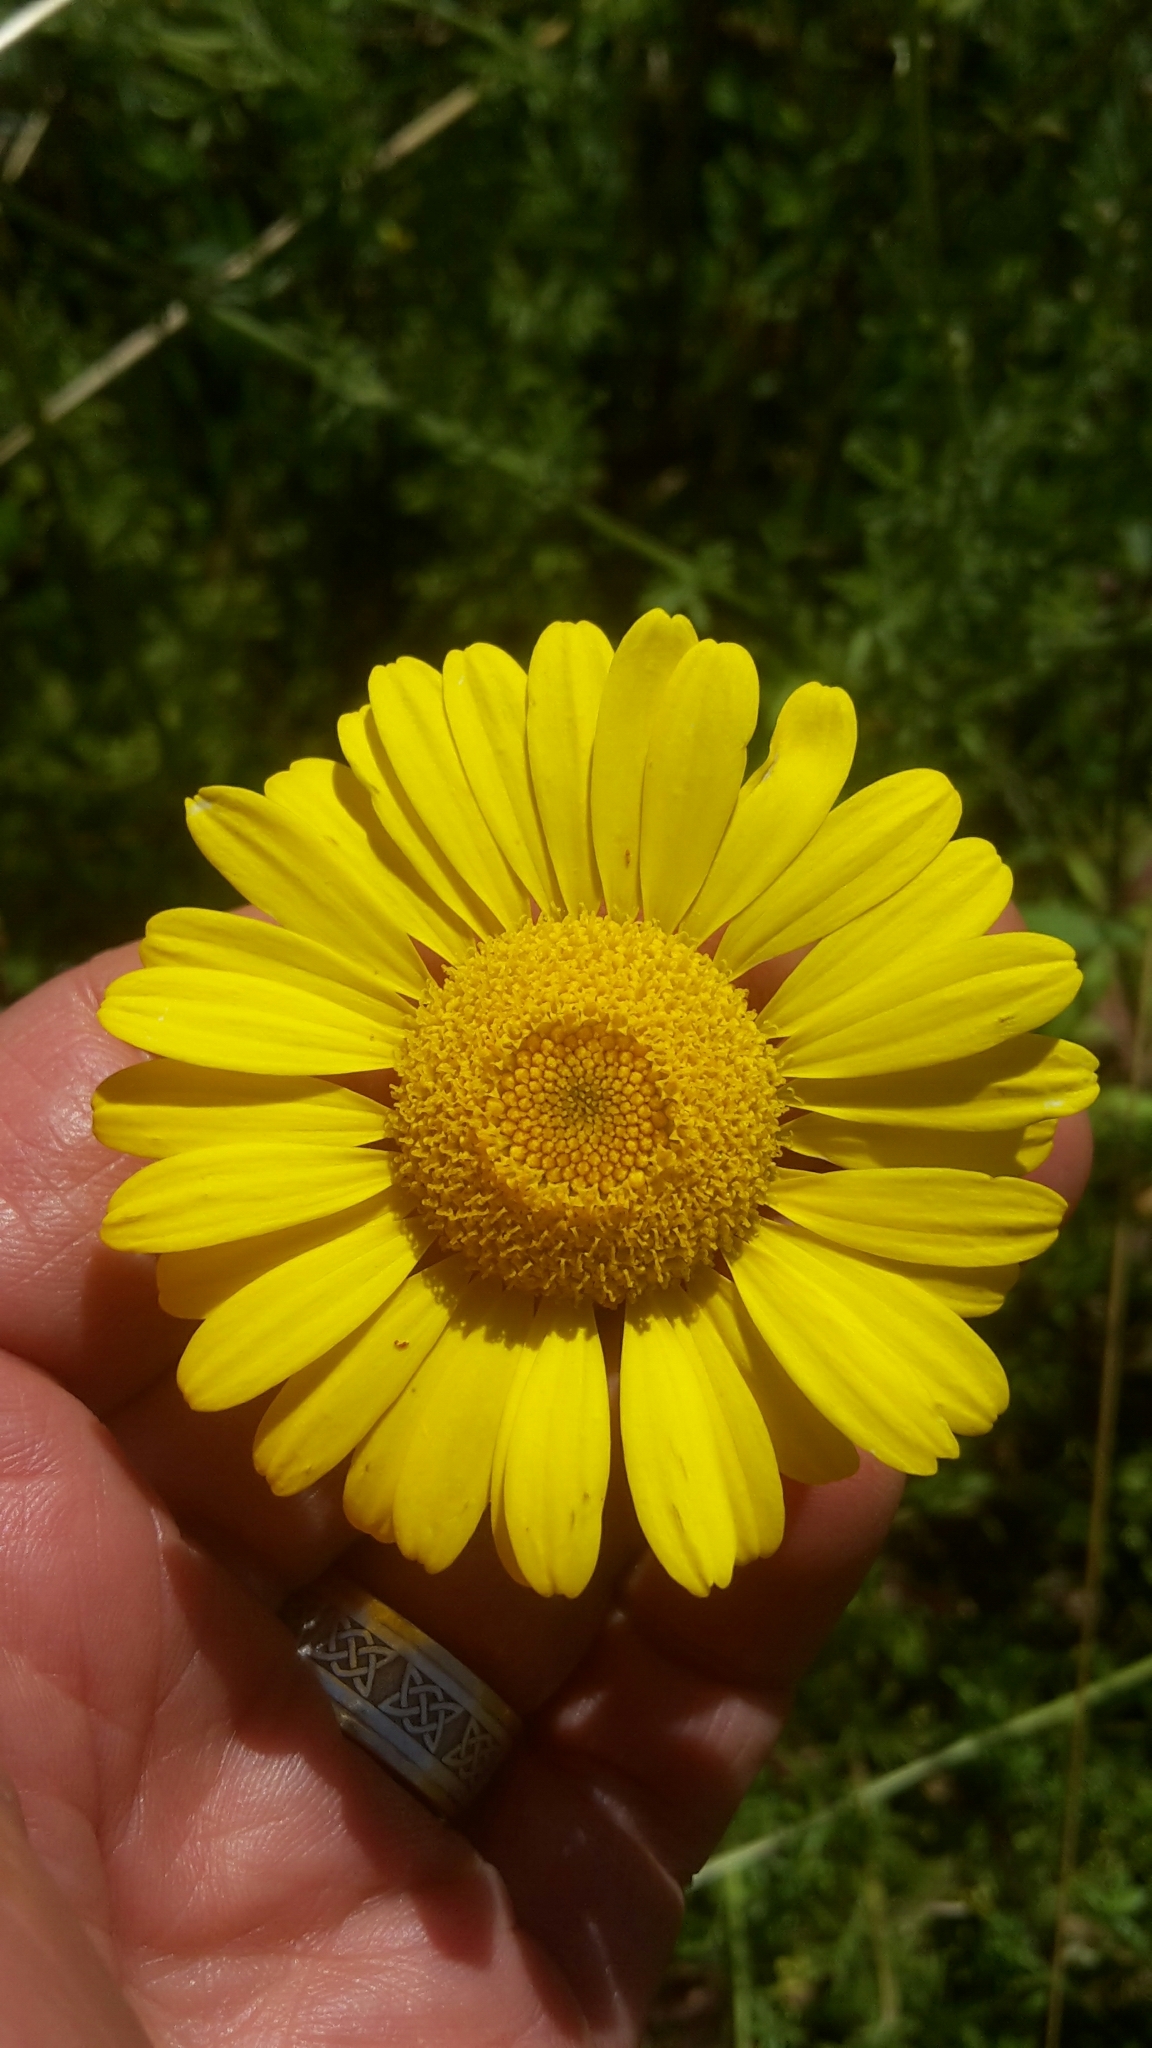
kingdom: Plantae
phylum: Tracheophyta
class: Magnoliopsida
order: Asterales
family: Asteraceae
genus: Cota
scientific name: Cota tinctoria
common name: Golden chamomile
